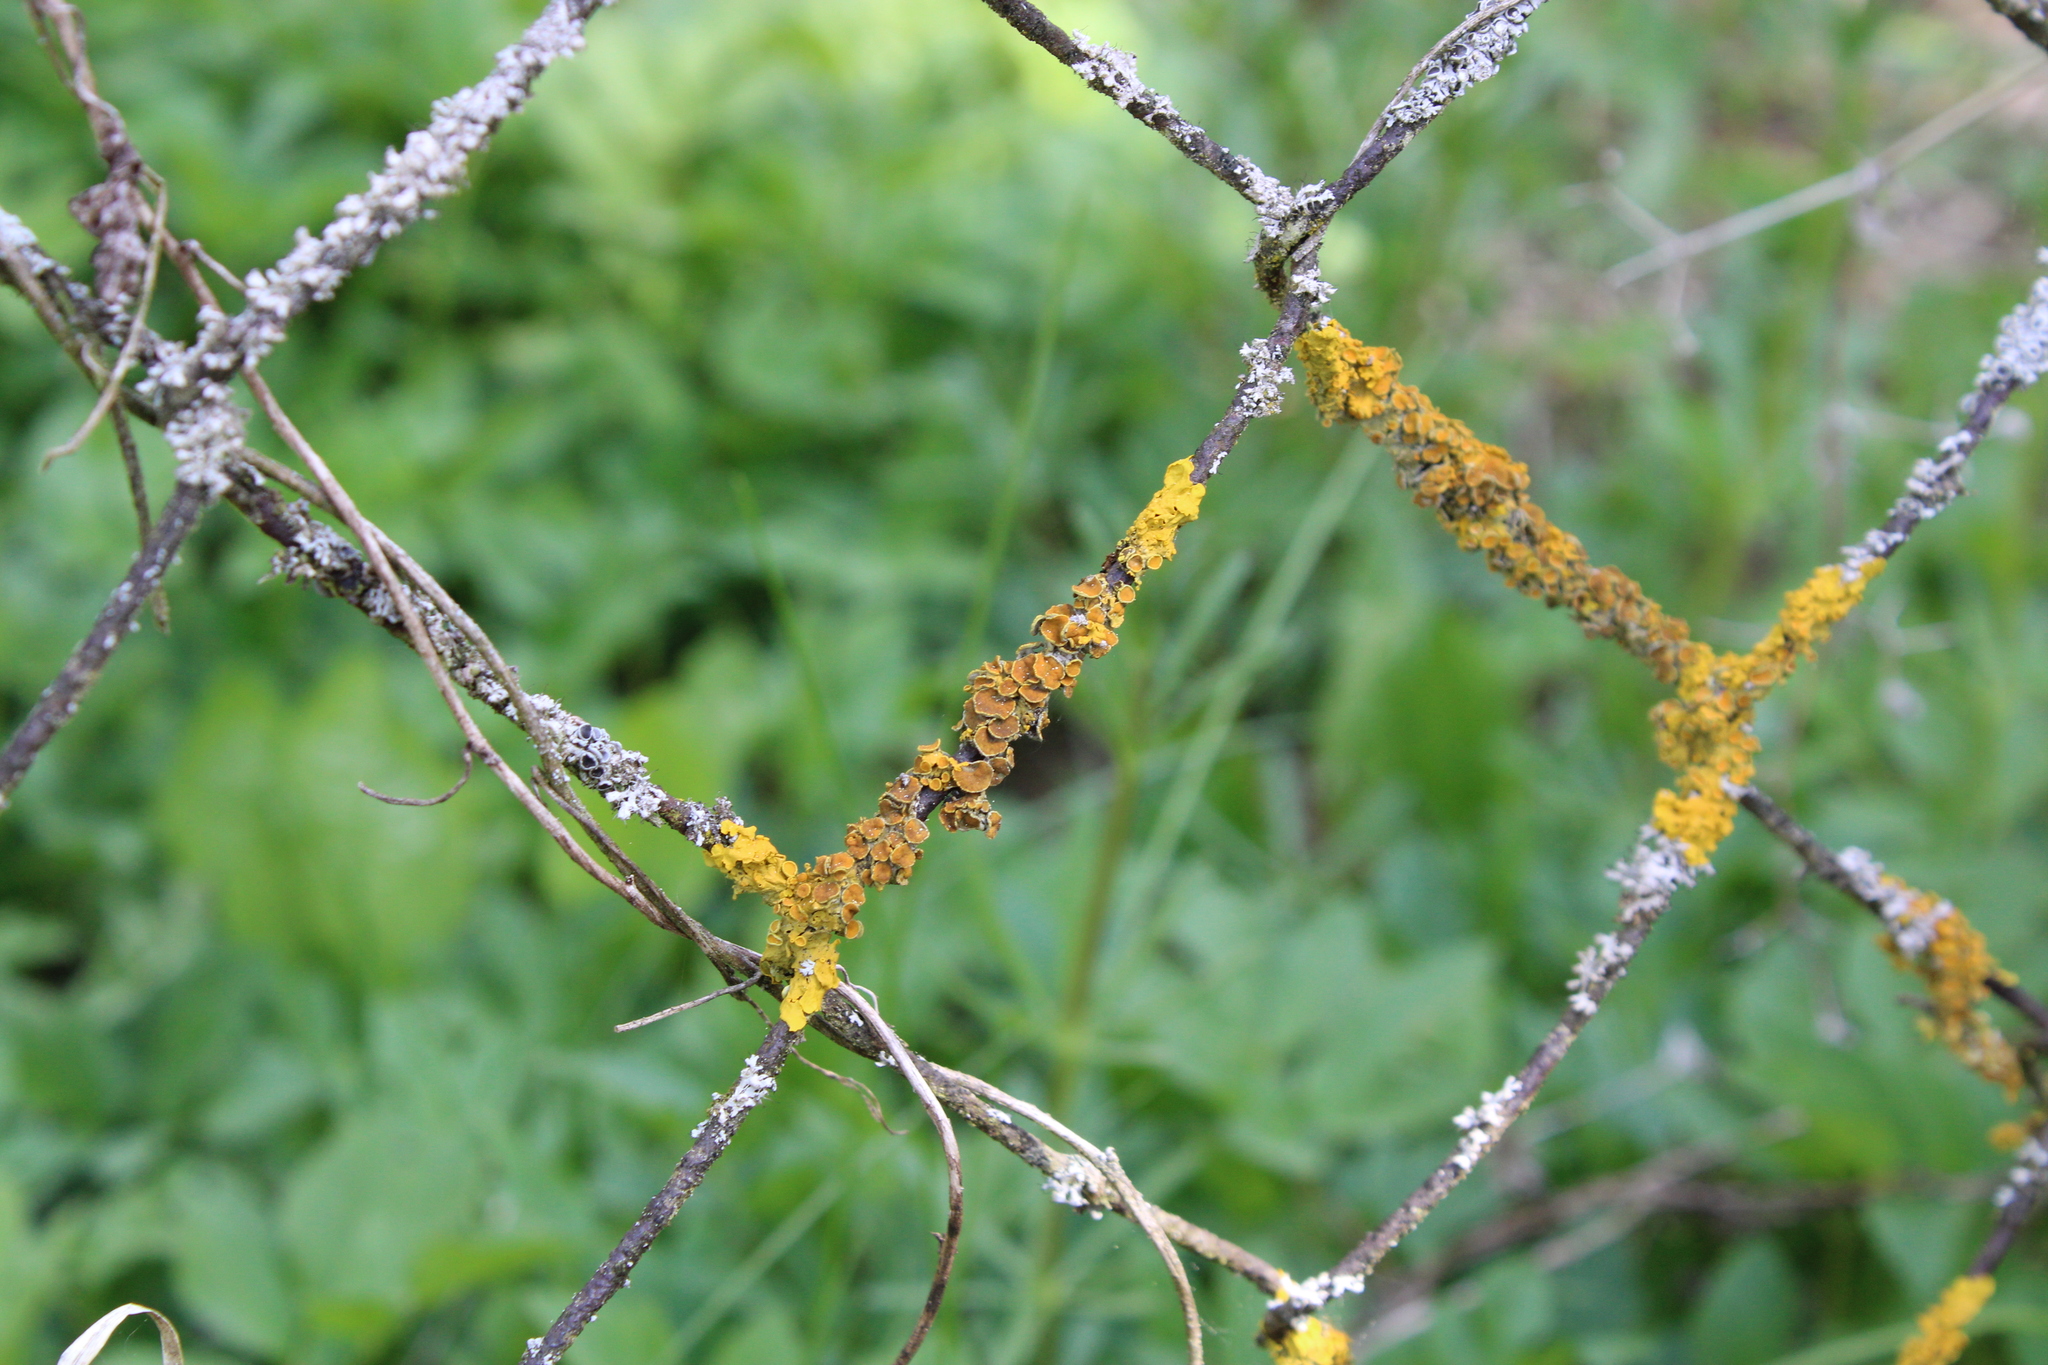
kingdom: Fungi
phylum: Ascomycota
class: Lecanoromycetes
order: Teloschistales
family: Teloschistaceae
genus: Xanthoria
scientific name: Xanthoria parietina
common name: Common orange lichen
